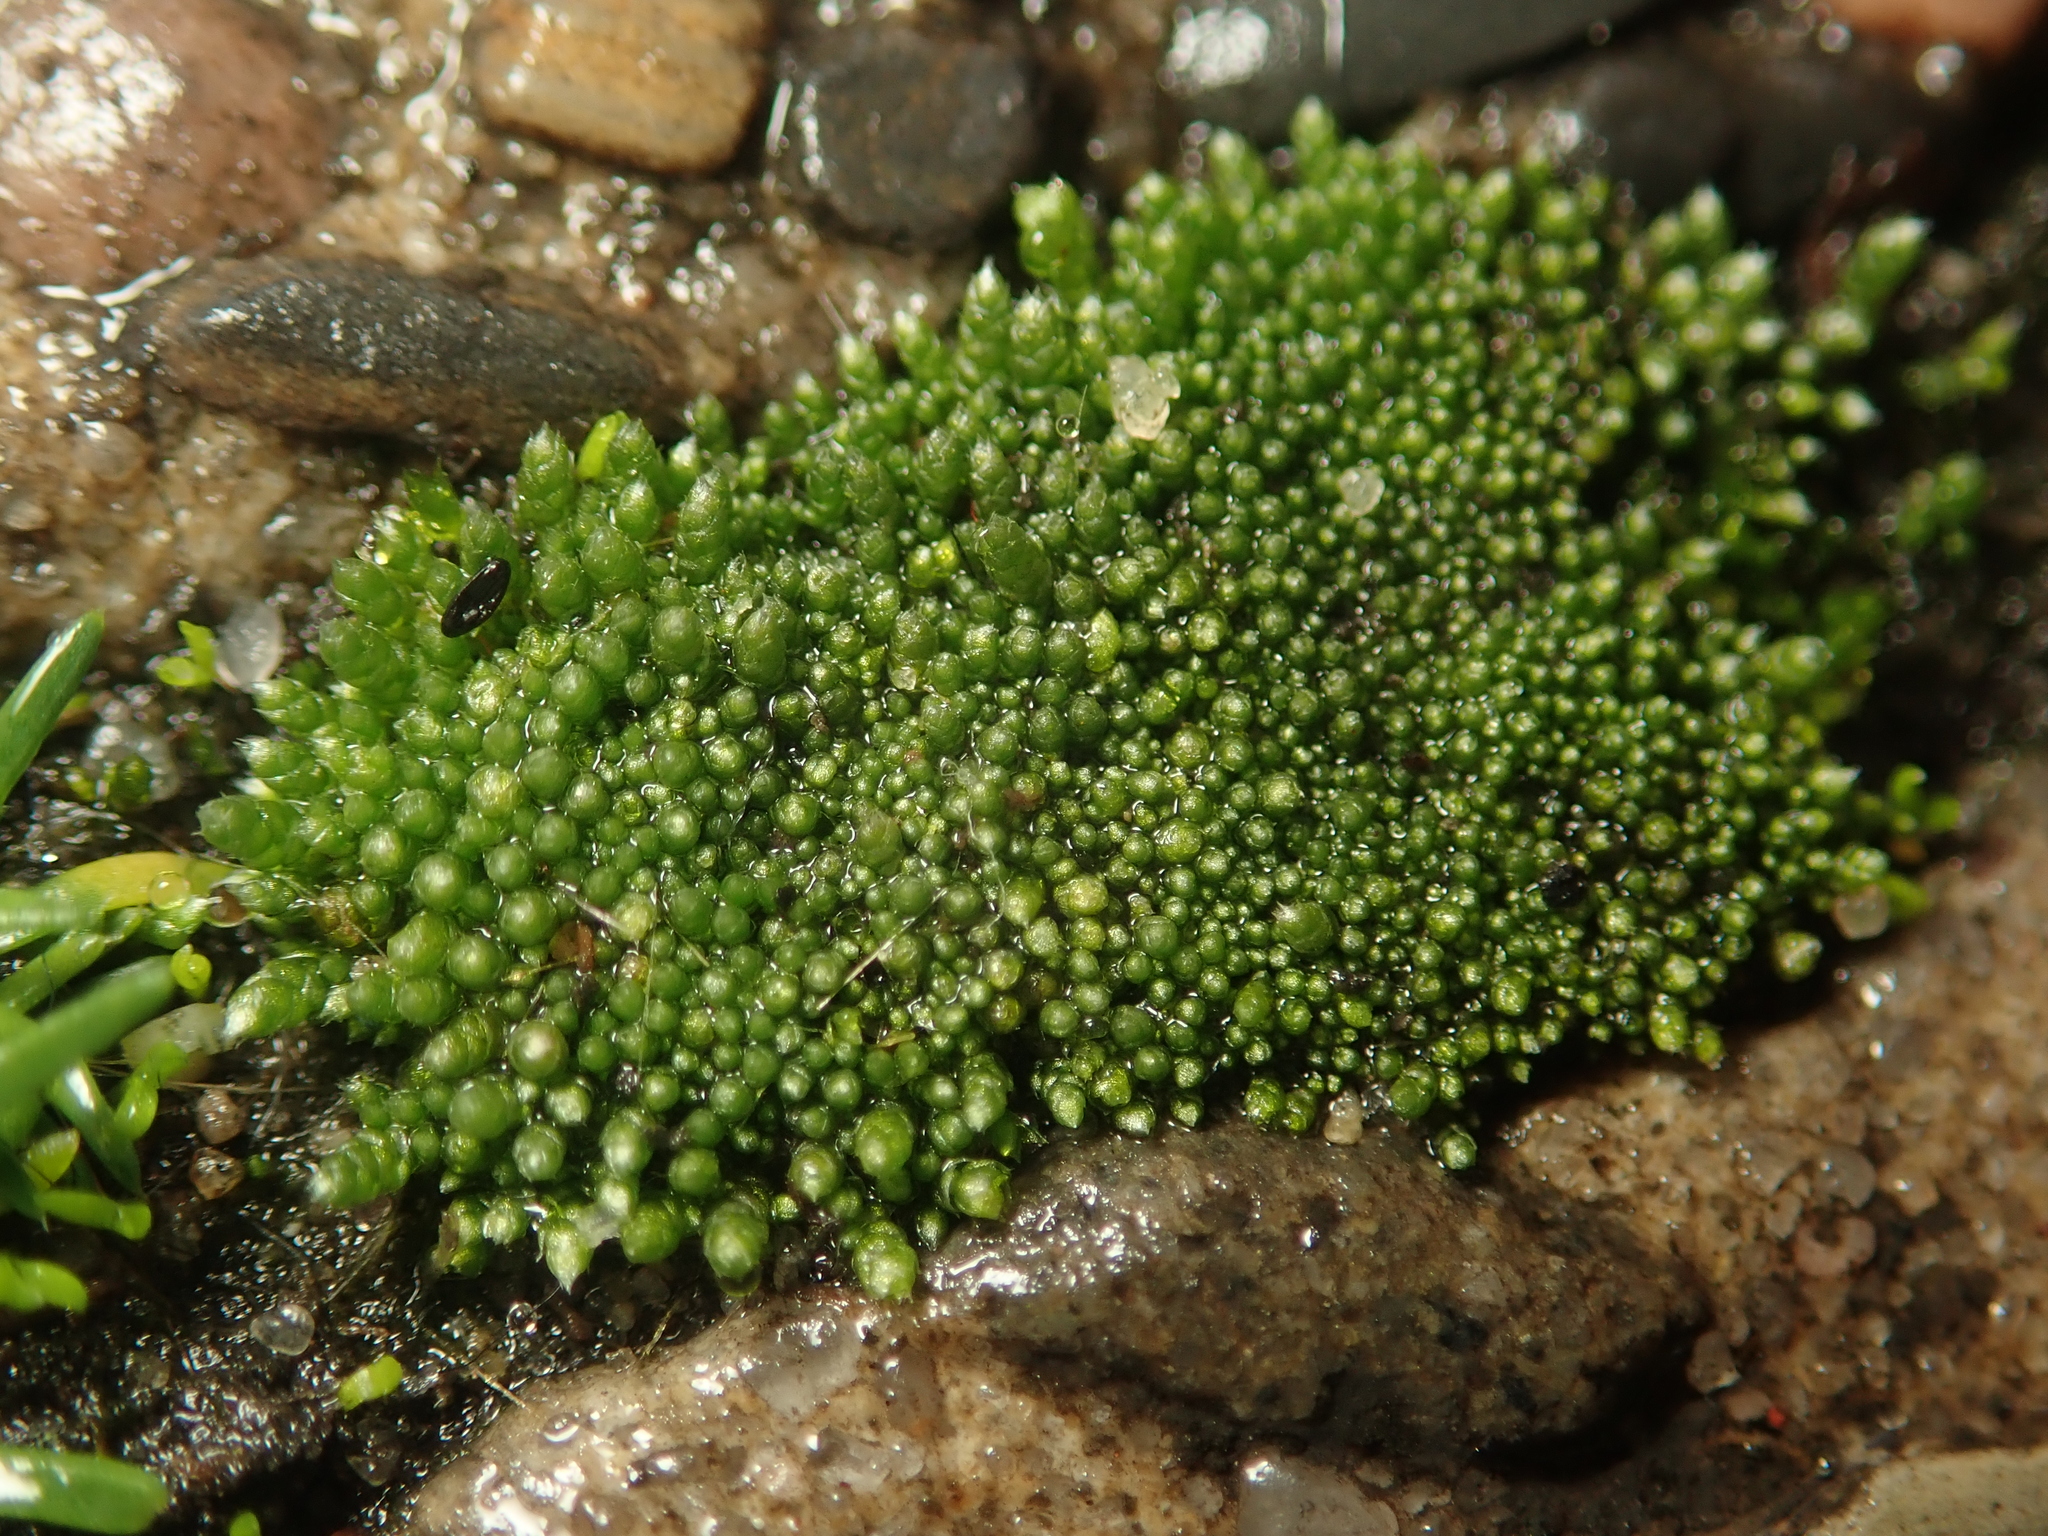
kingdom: Plantae
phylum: Bryophyta
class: Bryopsida
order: Bryales
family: Bryaceae
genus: Bryum
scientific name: Bryum argenteum
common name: Silver-moss
